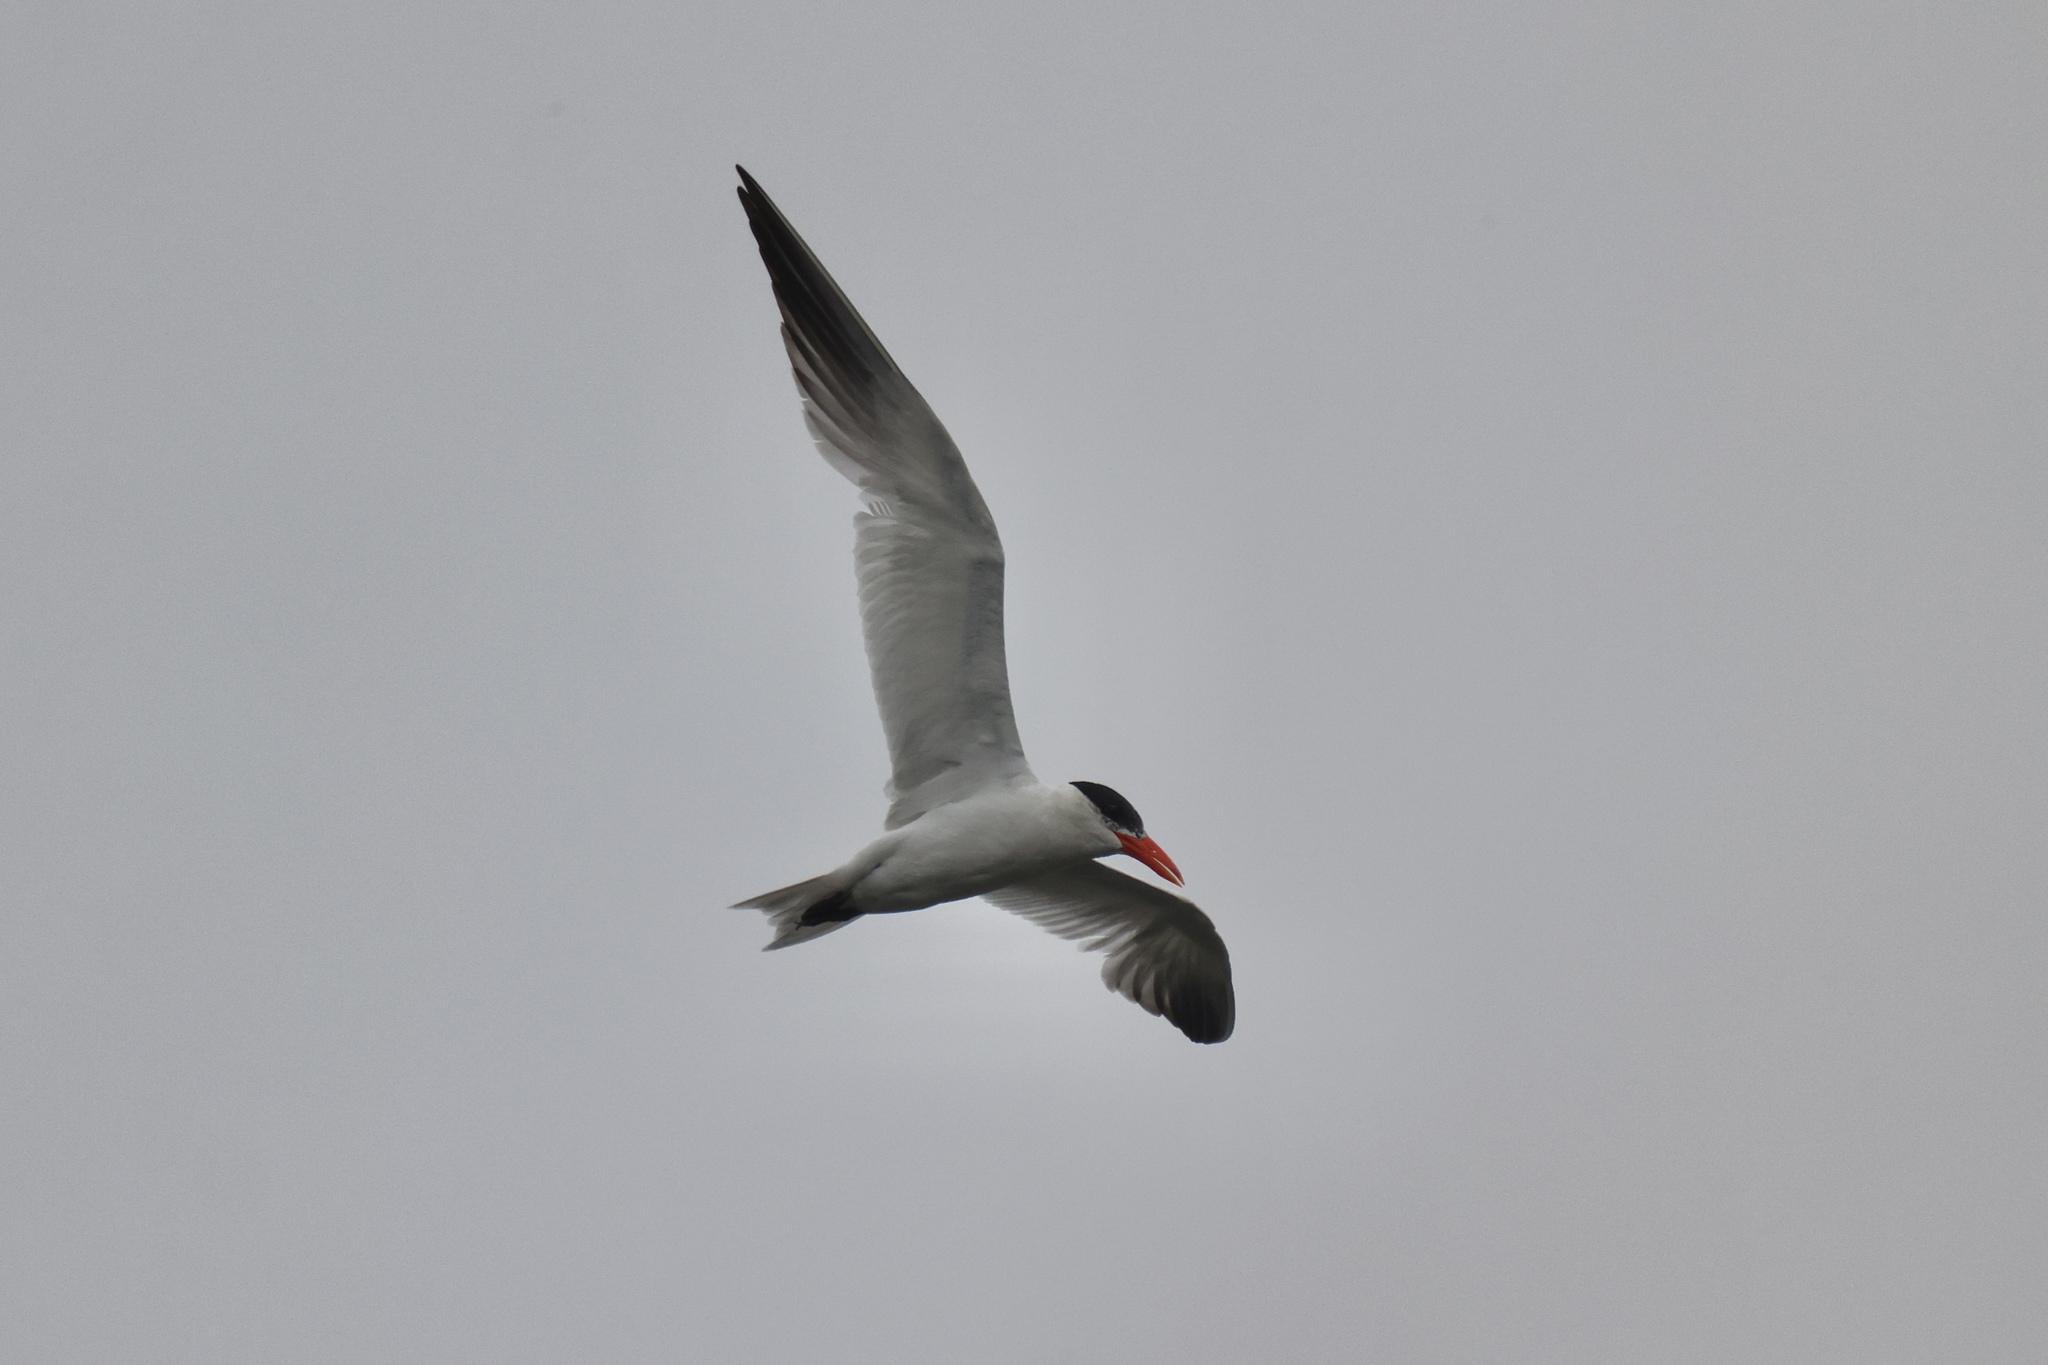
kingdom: Animalia
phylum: Chordata
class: Aves
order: Charadriiformes
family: Laridae
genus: Hydroprogne
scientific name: Hydroprogne caspia
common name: Caspian tern
